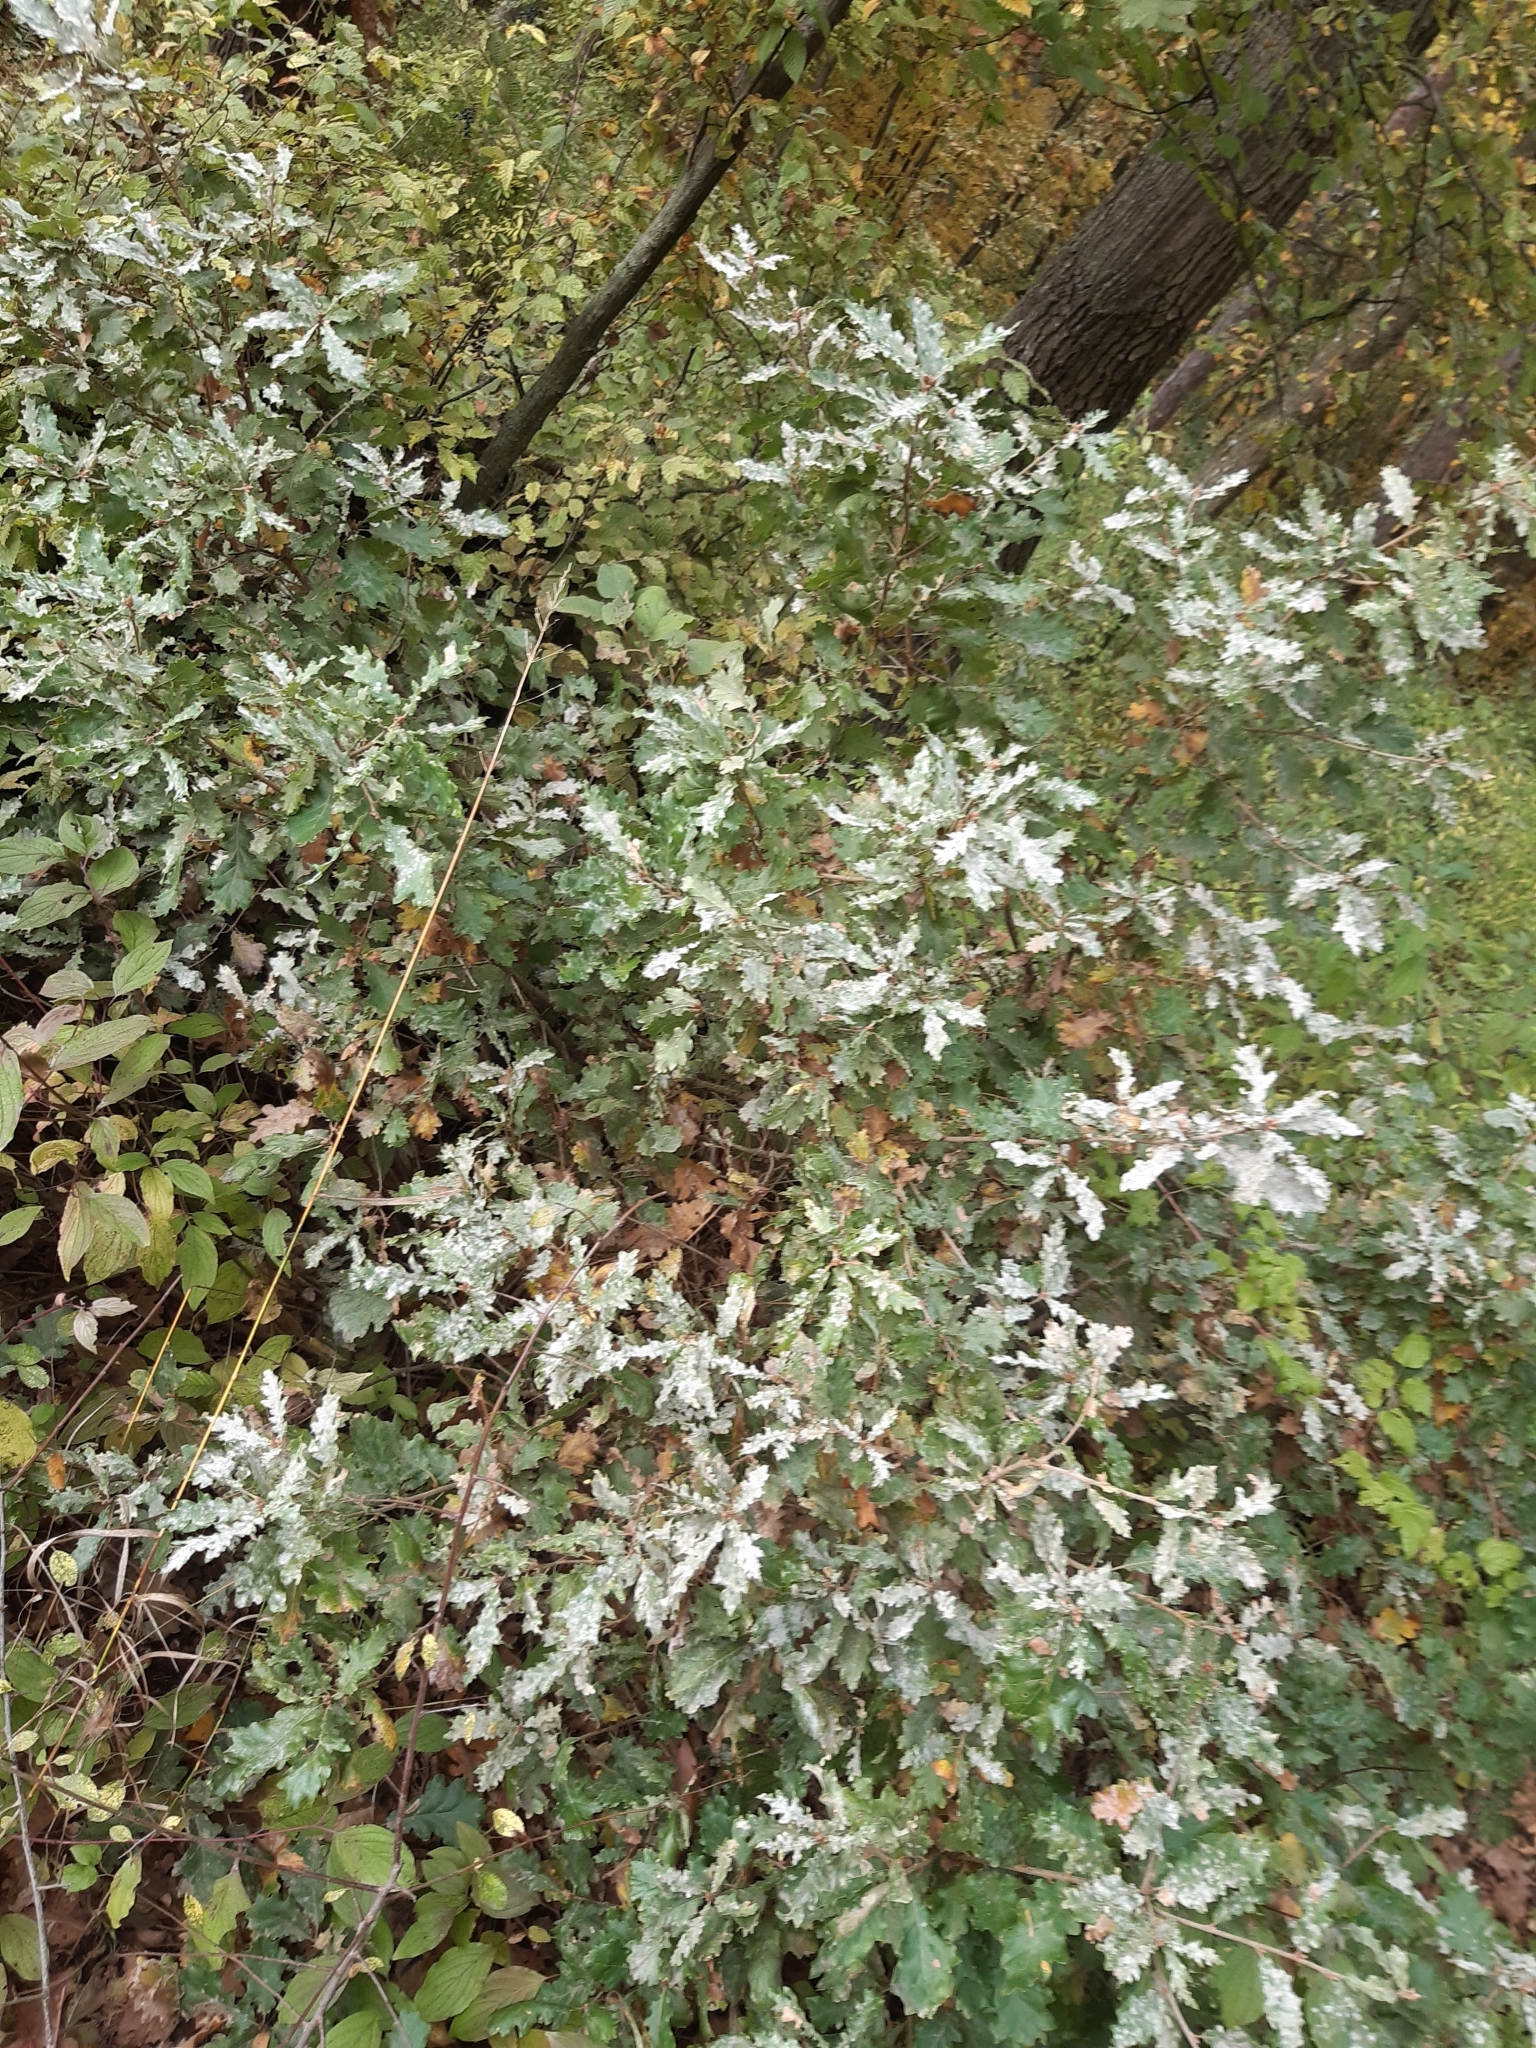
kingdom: Plantae
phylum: Tracheophyta
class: Magnoliopsida
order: Fagales
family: Fagaceae
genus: Quercus
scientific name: Quercus pubescens
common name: Downy oak
